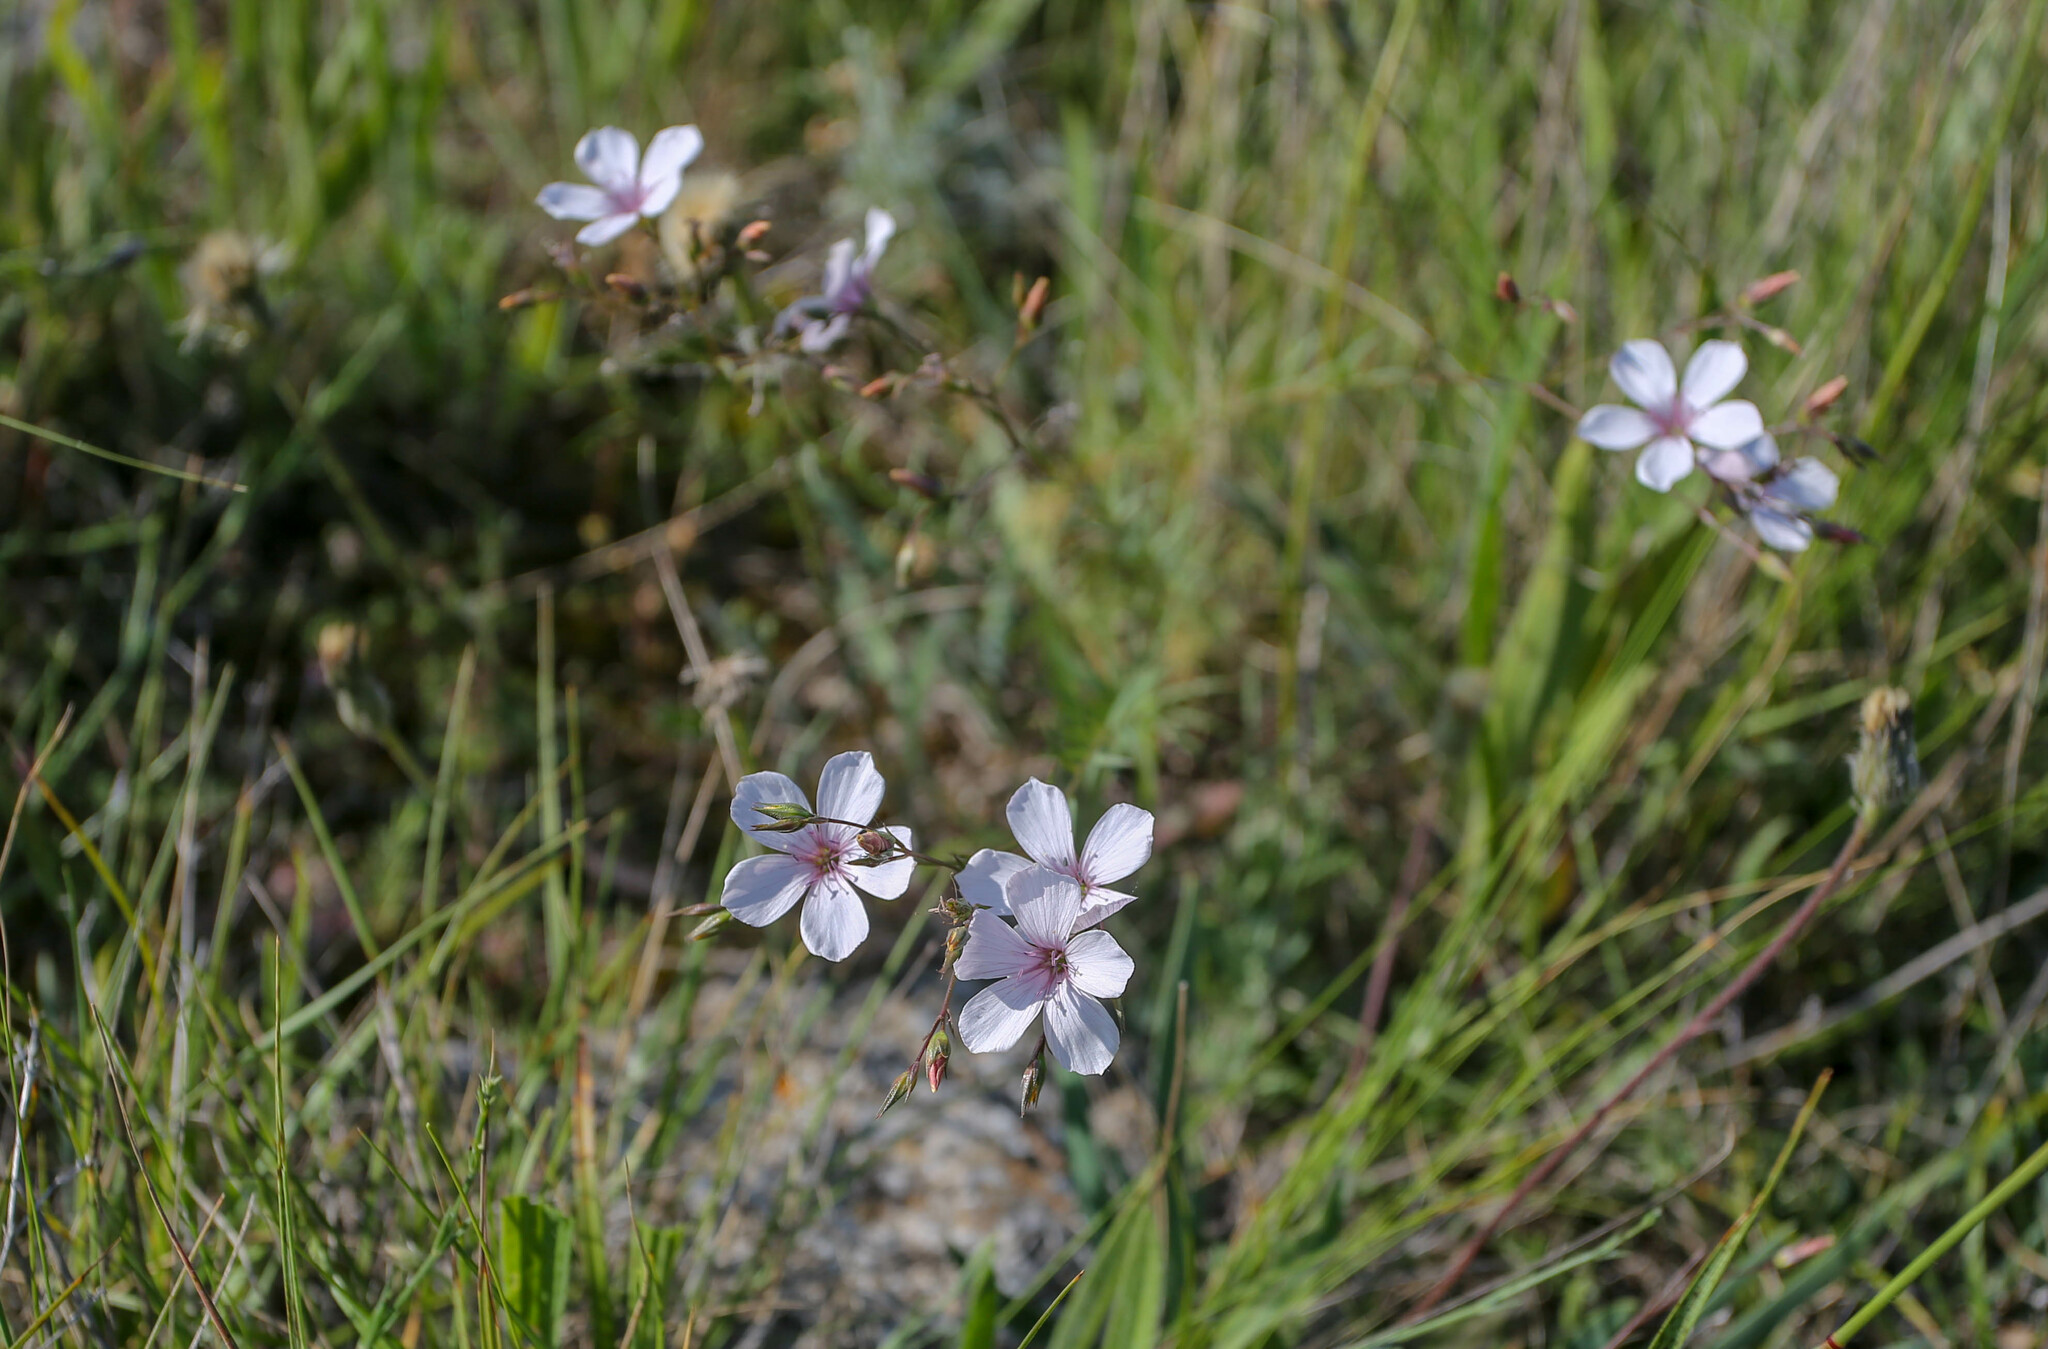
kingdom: Plantae
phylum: Tracheophyta
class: Magnoliopsida
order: Malpighiales
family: Linaceae
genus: Linum
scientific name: Linum tenuifolium
